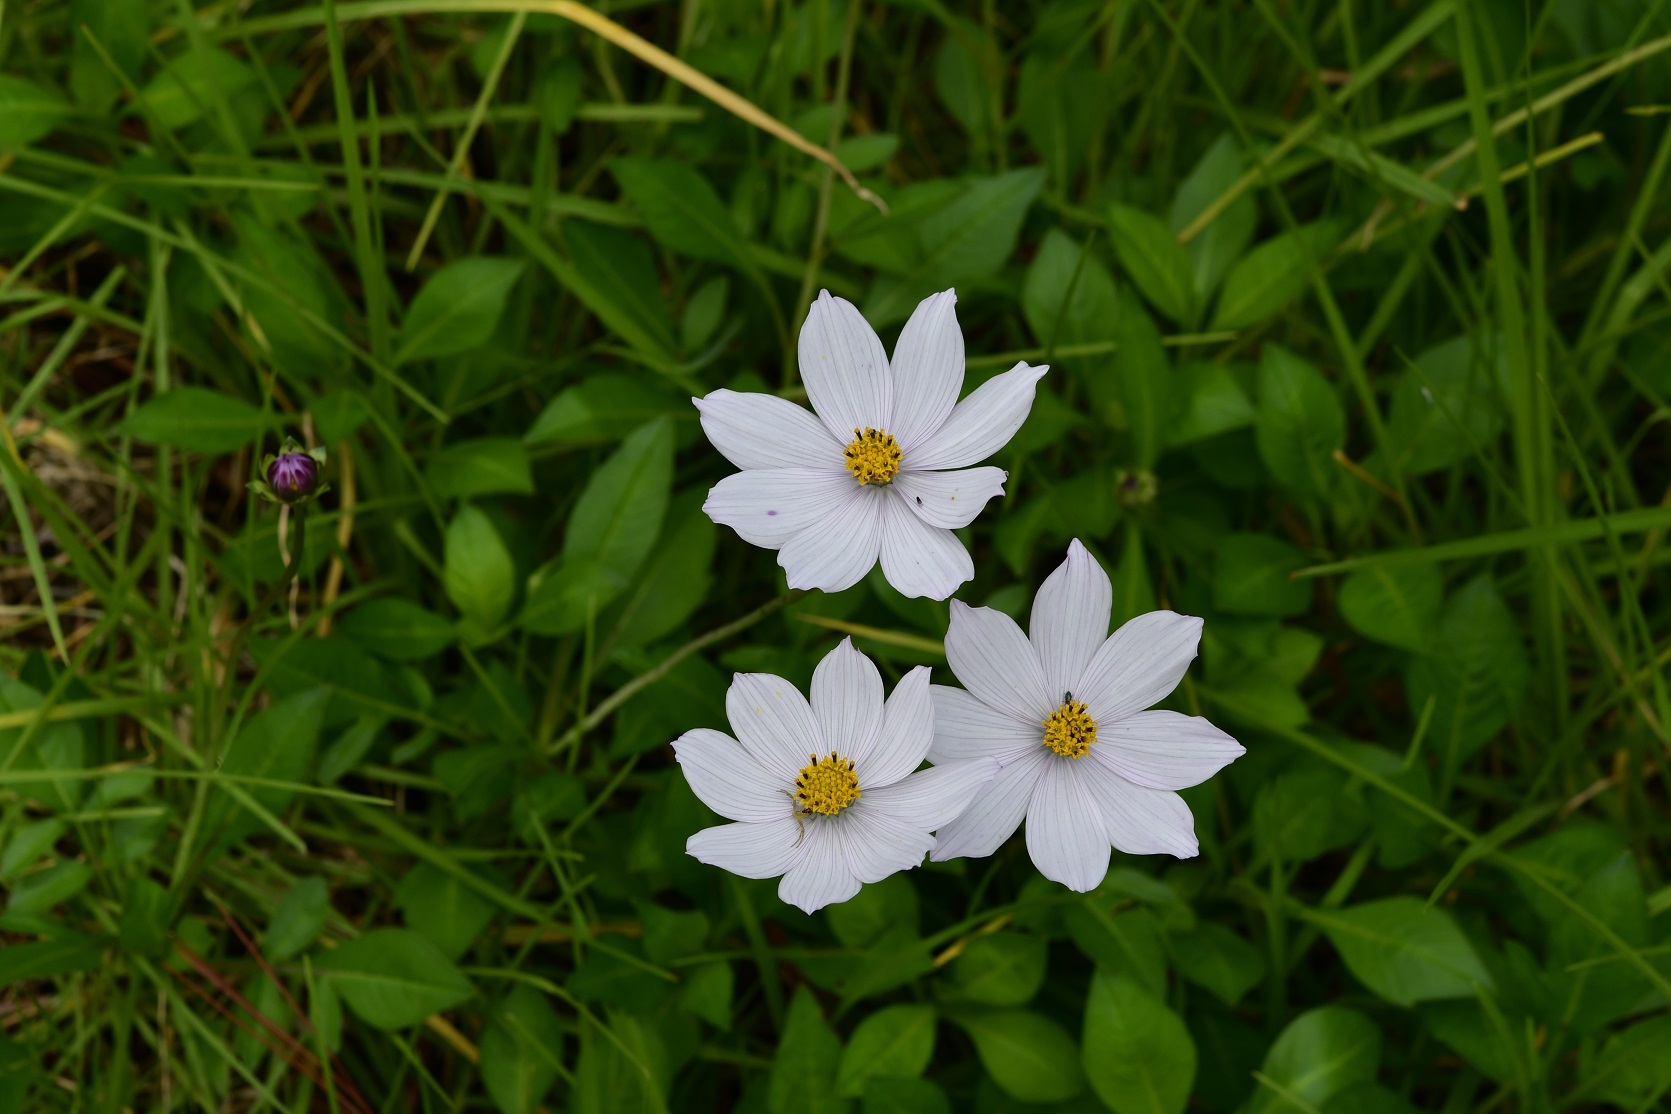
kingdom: Plantae
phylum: Tracheophyta
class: Magnoliopsida
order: Asterales
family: Asteraceae
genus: Cosmos
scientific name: Cosmos diversifolius
